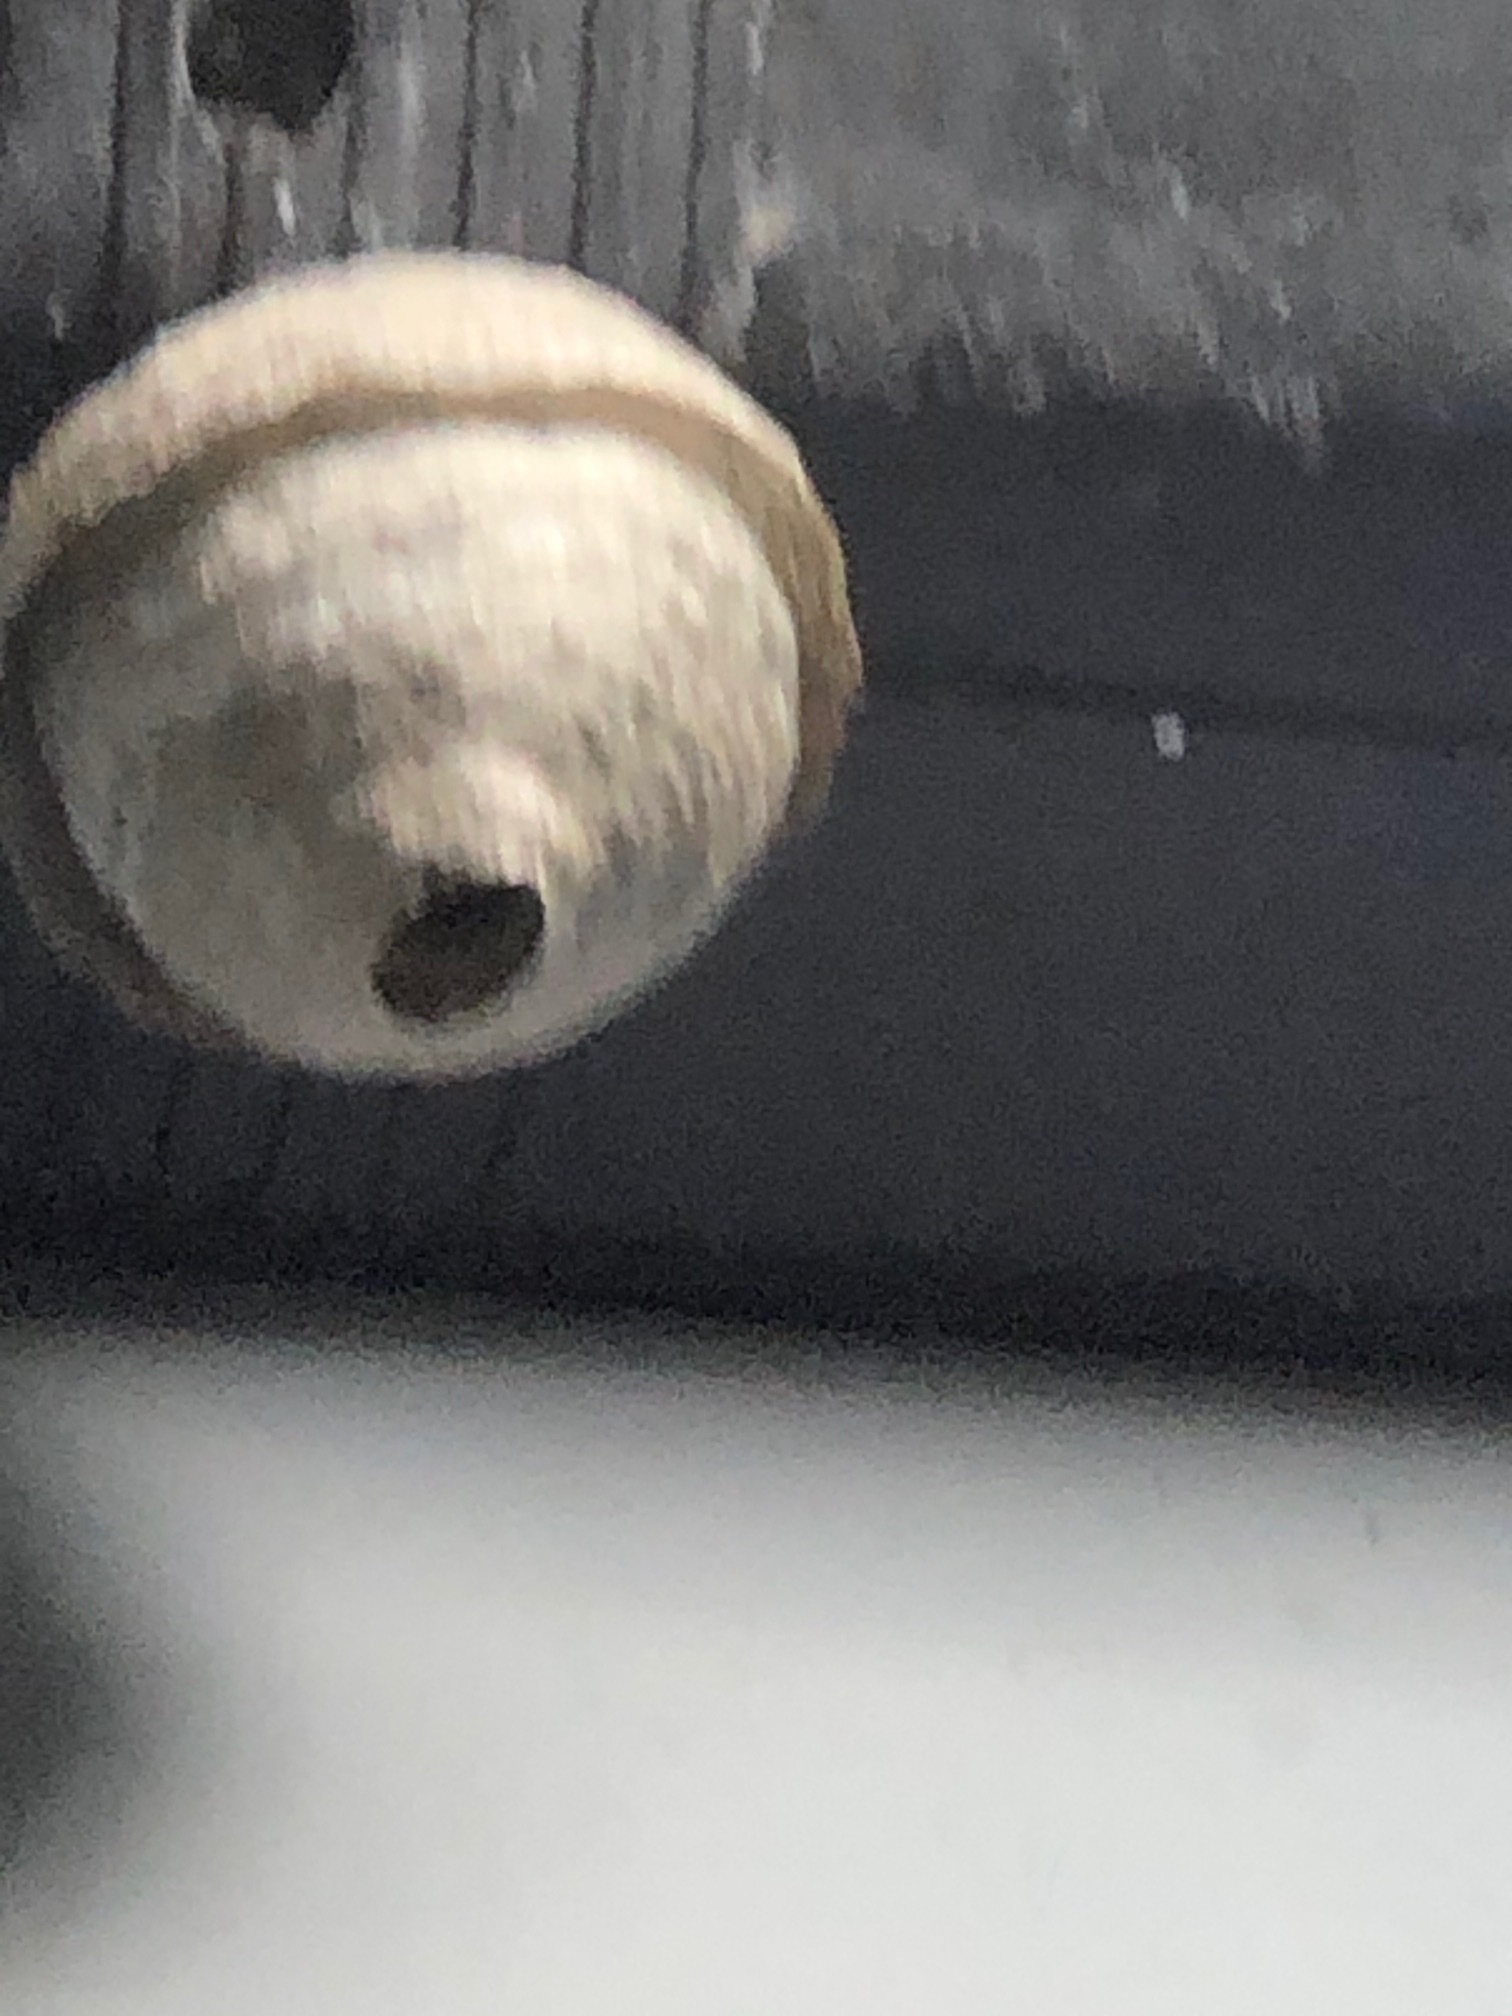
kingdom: Animalia
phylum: Arthropoda
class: Insecta
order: Hymenoptera
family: Vespidae
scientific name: Vespidae
